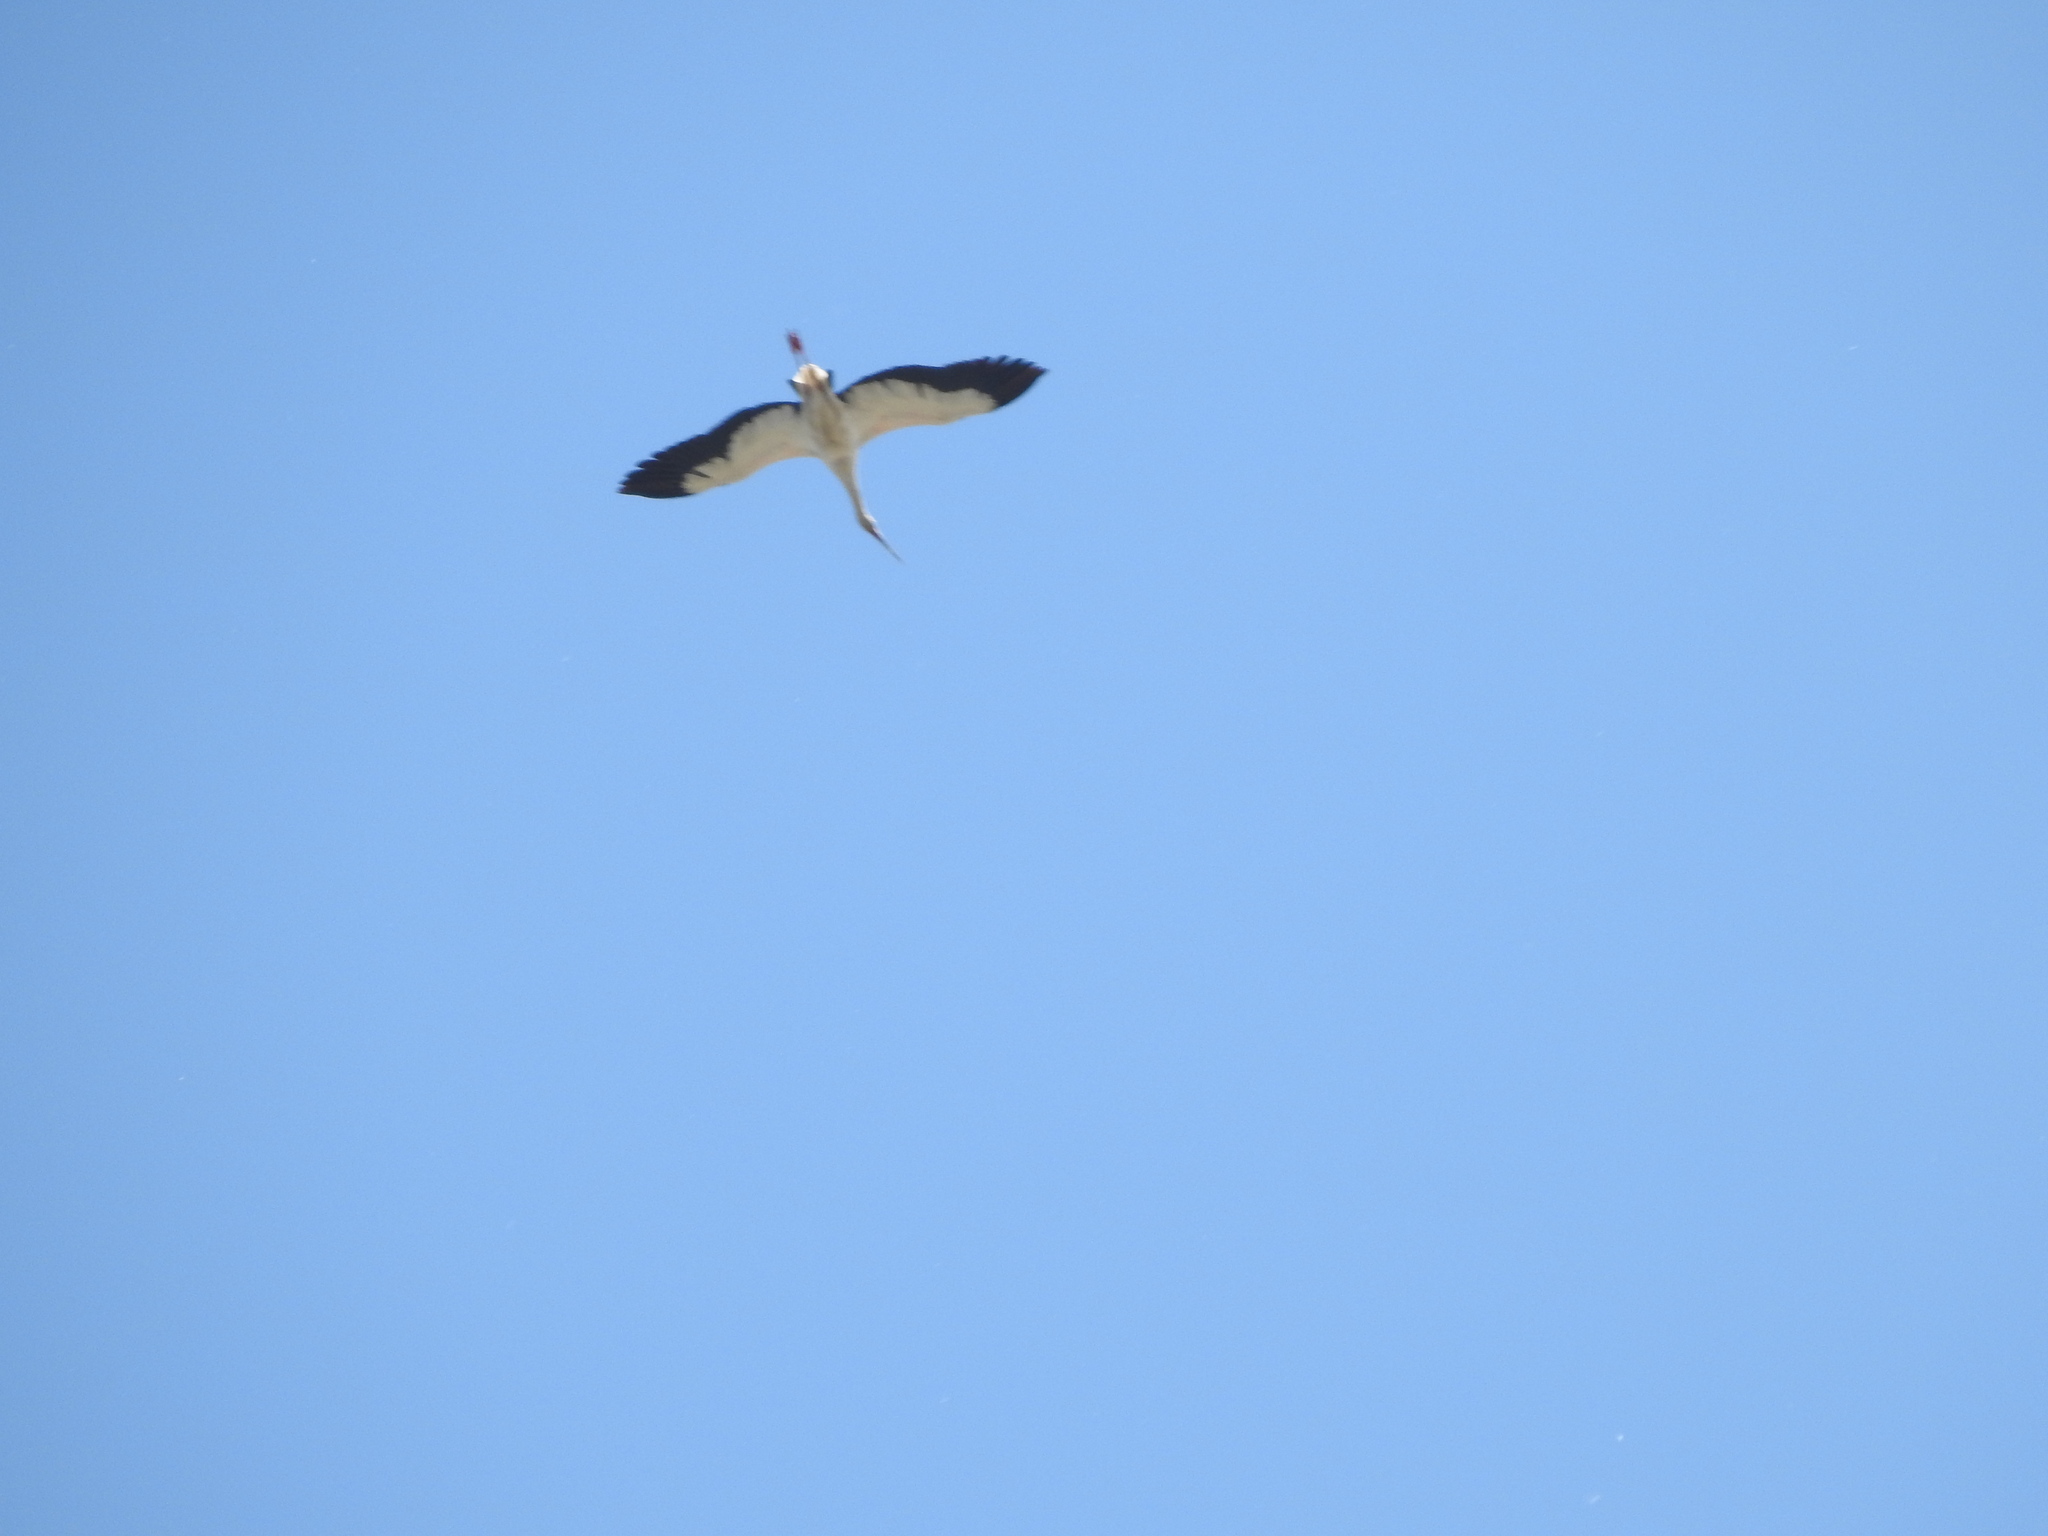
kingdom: Animalia
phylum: Chordata
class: Aves
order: Ciconiiformes
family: Ciconiidae
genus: Ciconia
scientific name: Ciconia maguari
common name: Maguari stork
